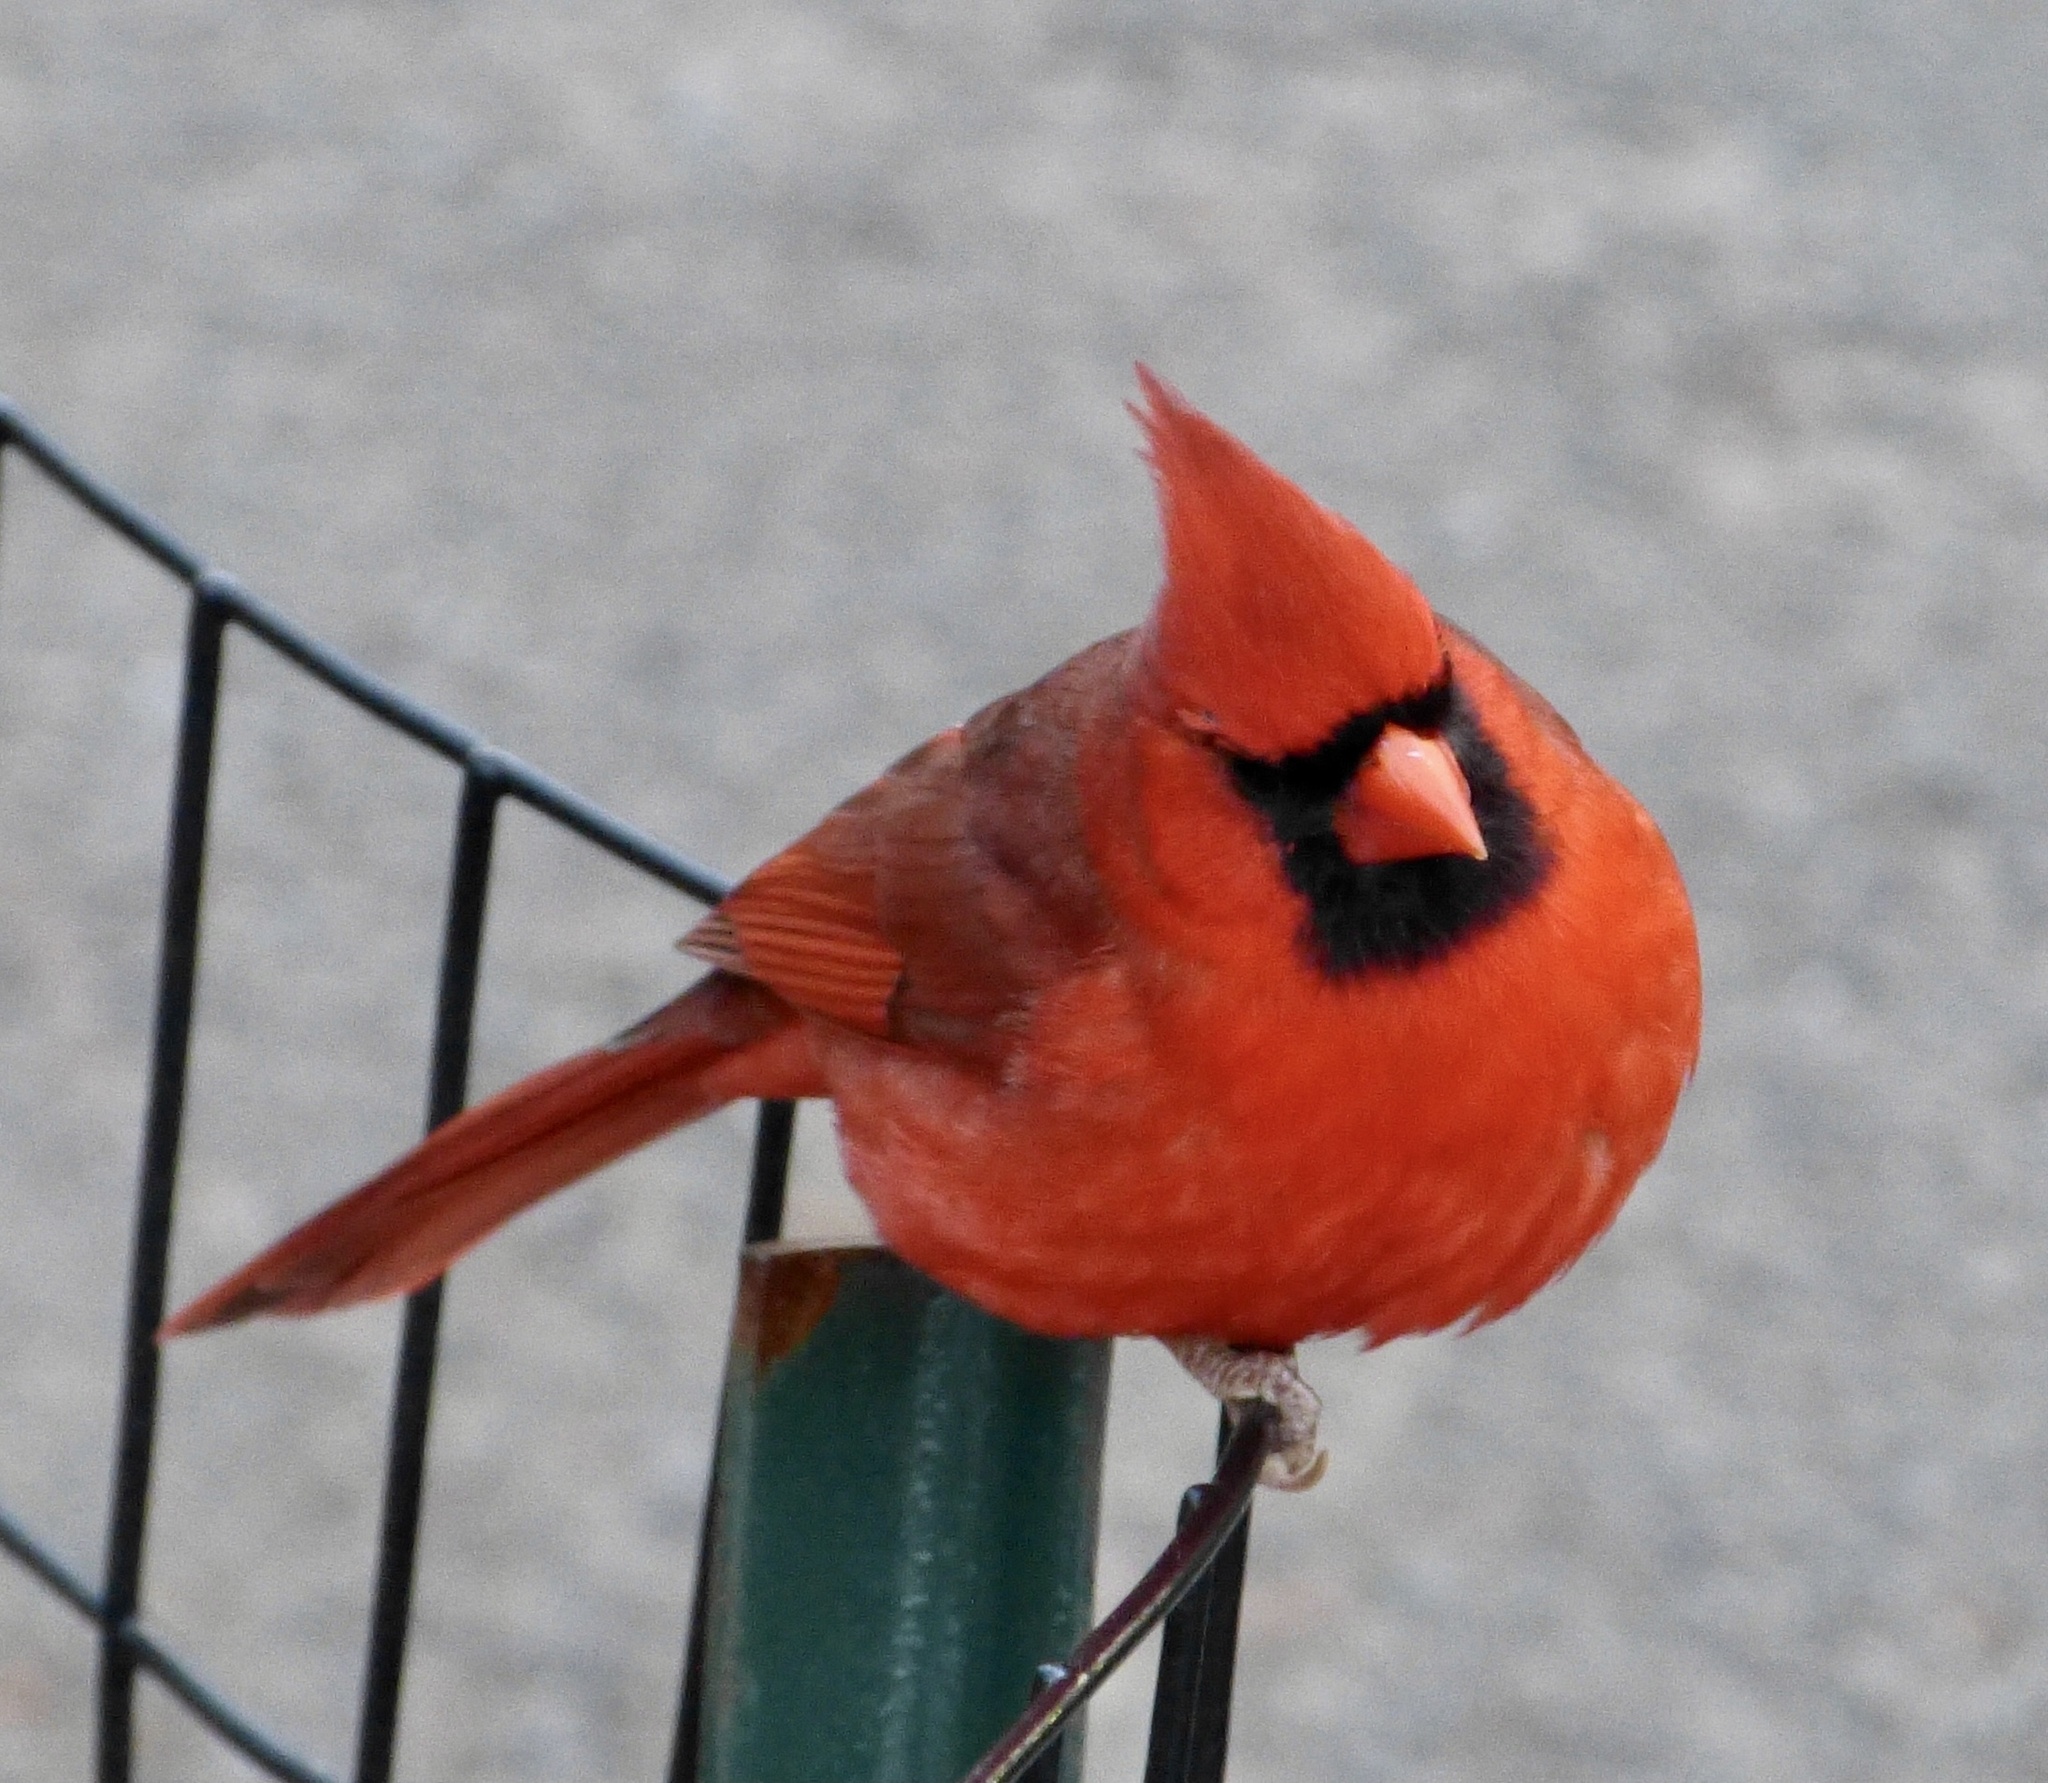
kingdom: Animalia
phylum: Chordata
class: Aves
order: Passeriformes
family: Cardinalidae
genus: Cardinalis
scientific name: Cardinalis cardinalis
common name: Northern cardinal
